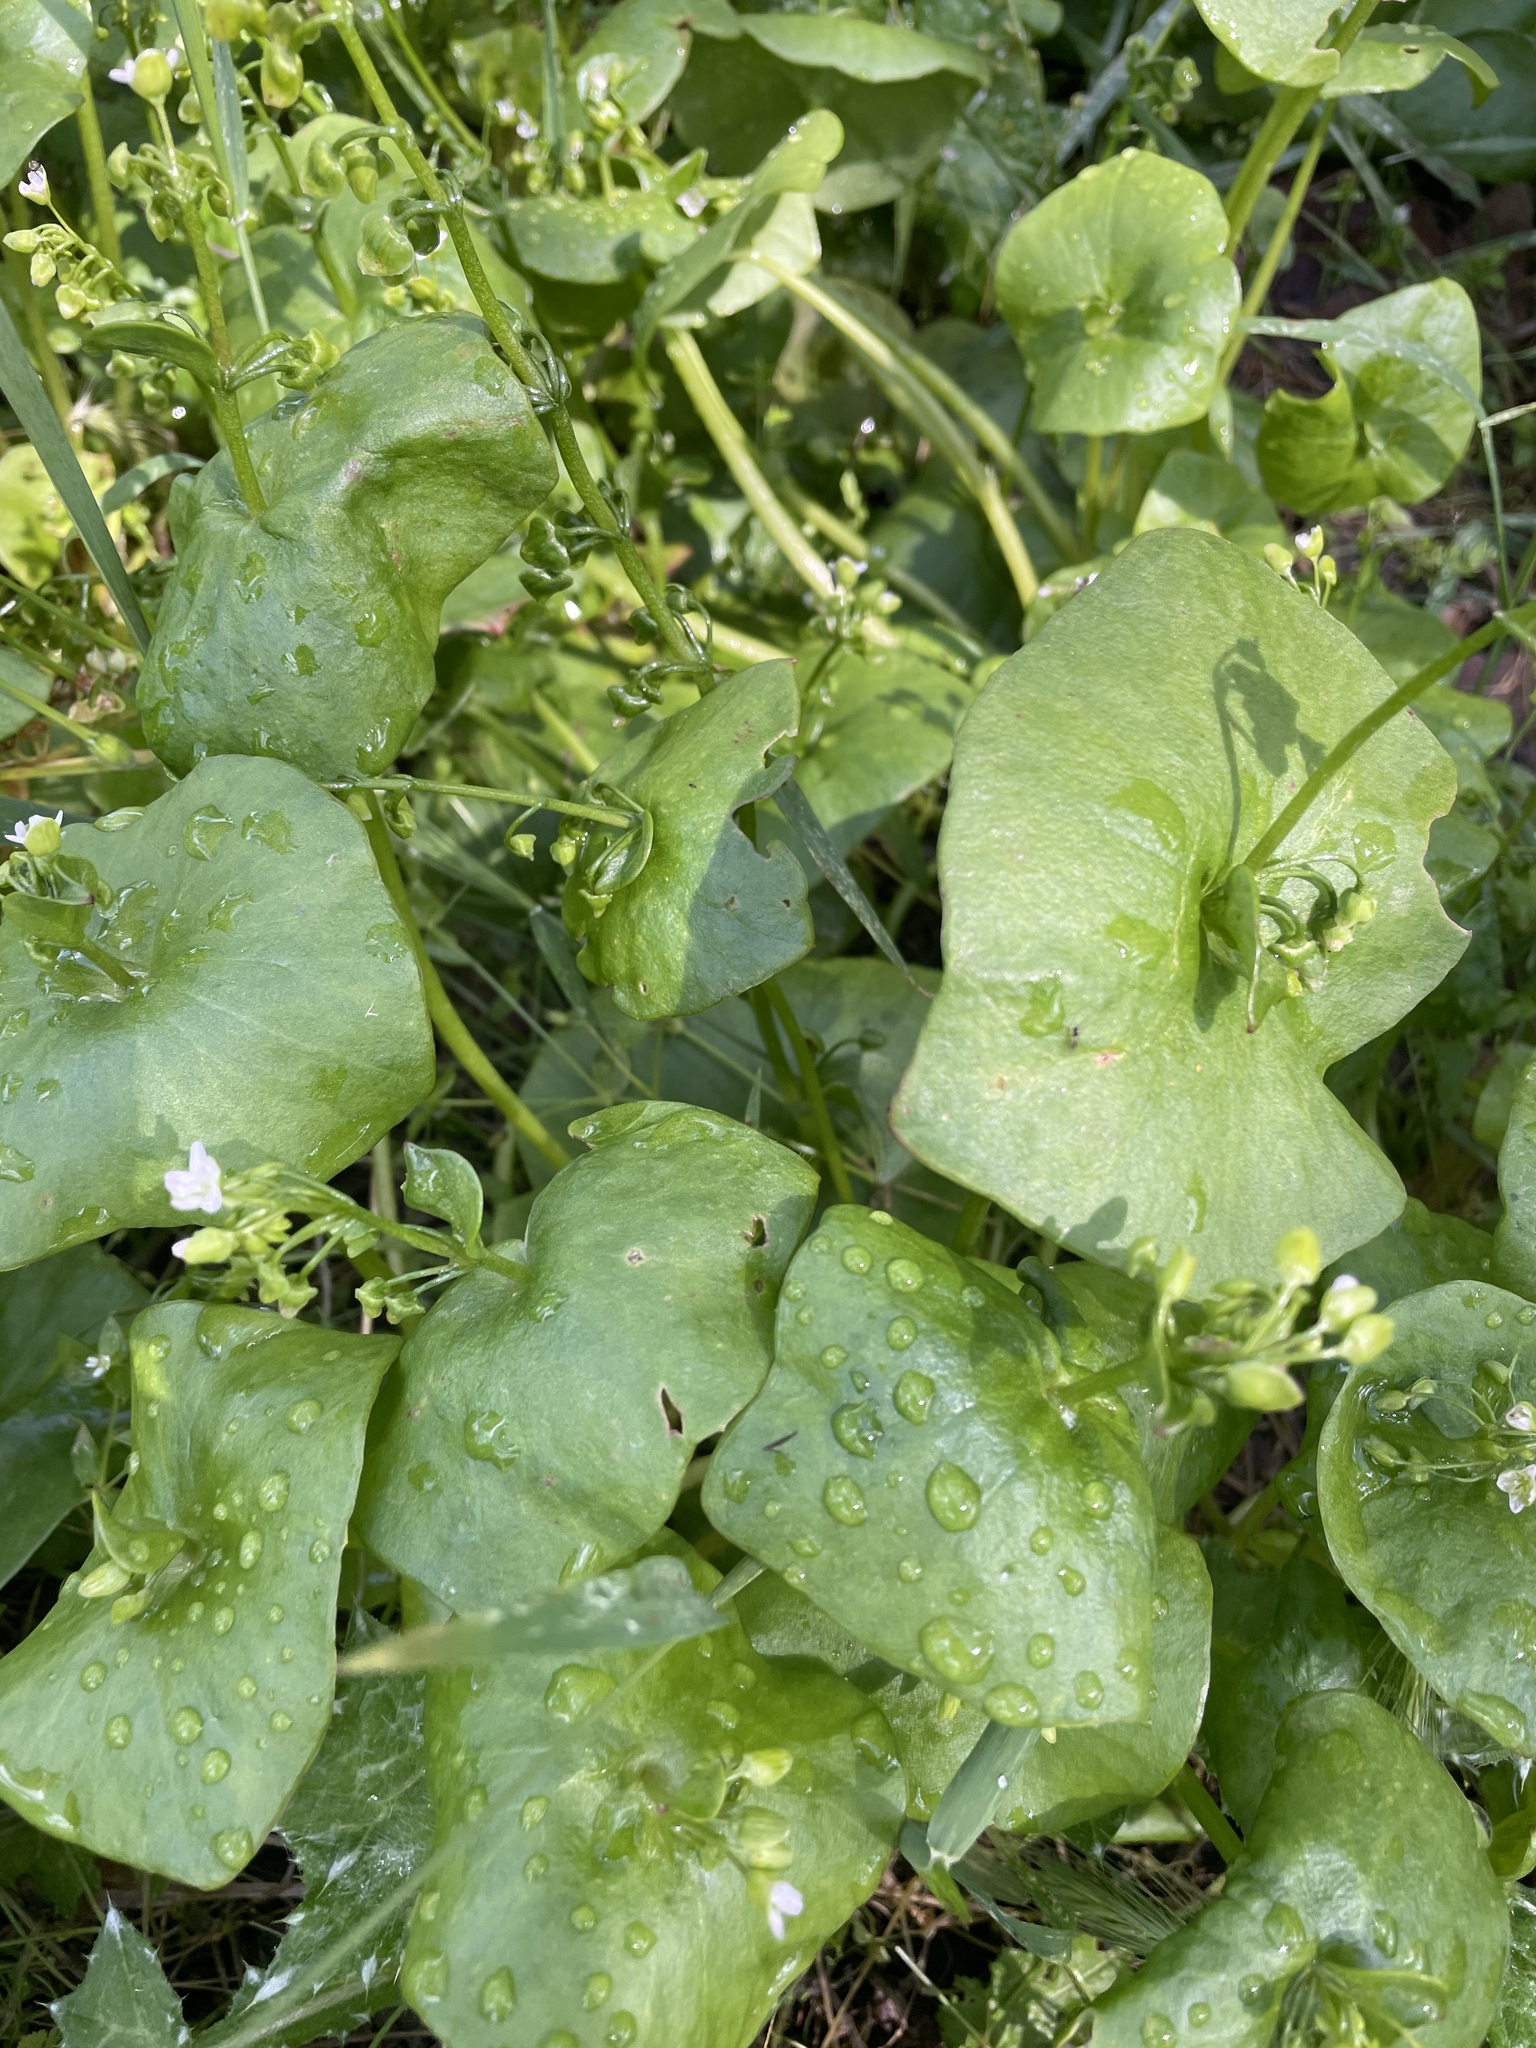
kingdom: Plantae
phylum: Tracheophyta
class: Magnoliopsida
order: Caryophyllales
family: Montiaceae
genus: Claytonia
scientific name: Claytonia perfoliata
